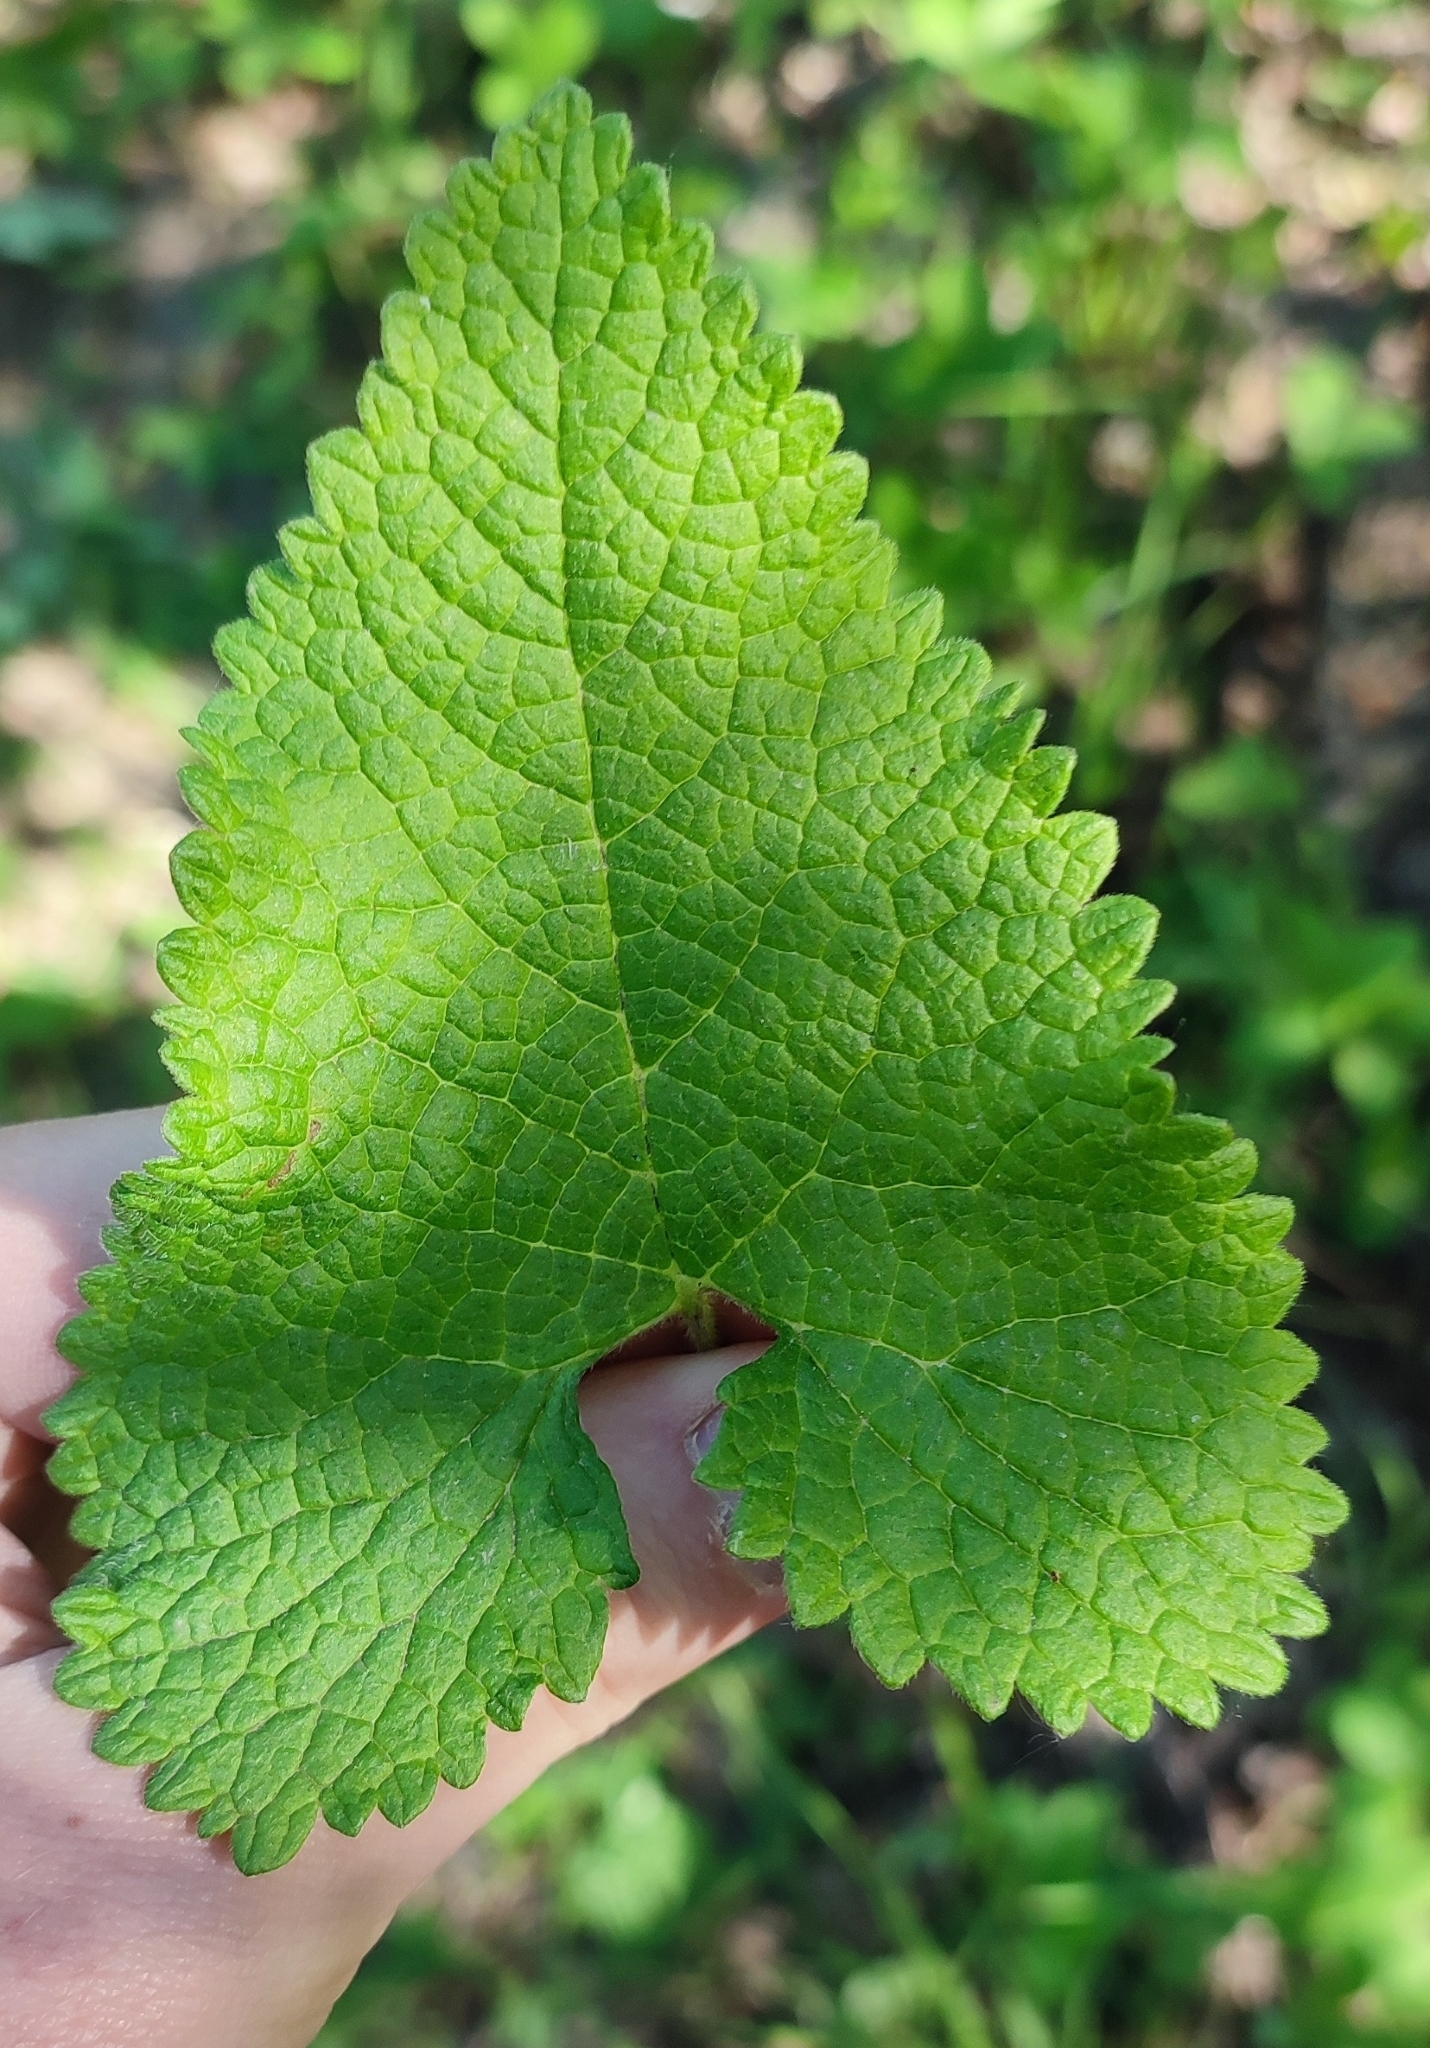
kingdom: Plantae
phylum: Tracheophyta
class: Magnoliopsida
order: Lamiales
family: Lamiaceae
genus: Phlomoides
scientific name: Phlomoides tuberosa
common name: Tuberous jerusalem sage
